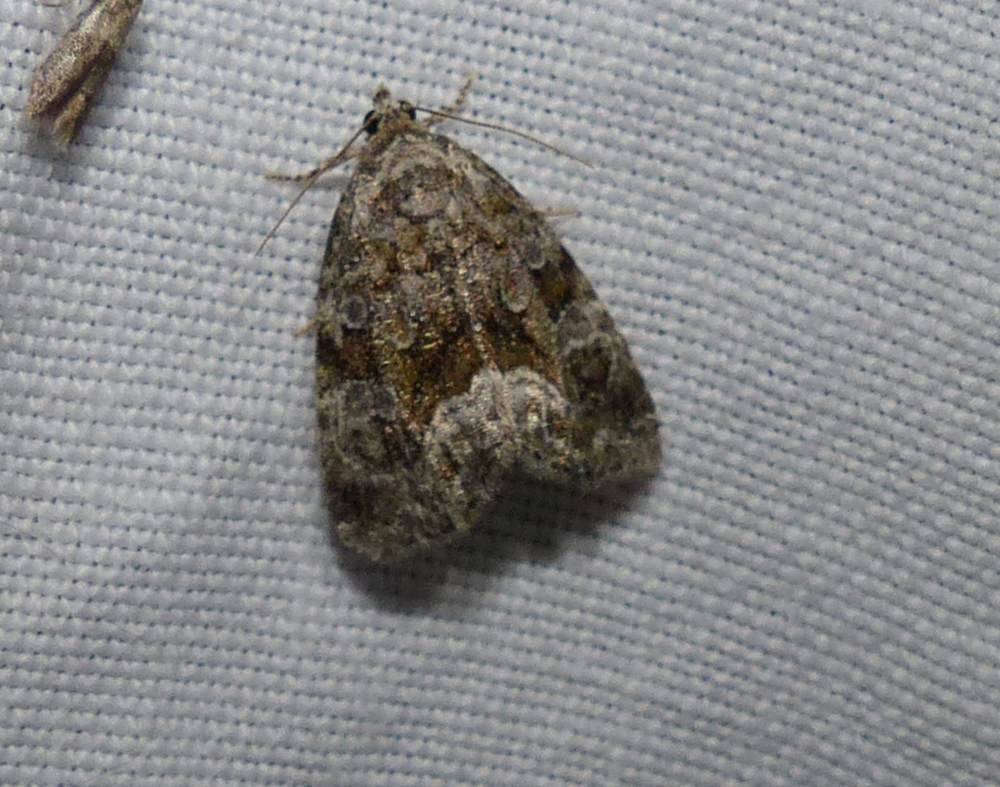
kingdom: Animalia
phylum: Arthropoda
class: Insecta
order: Lepidoptera
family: Noctuidae
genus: Protodeltote
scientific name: Protodeltote muscosula
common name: Large mossy glyph
